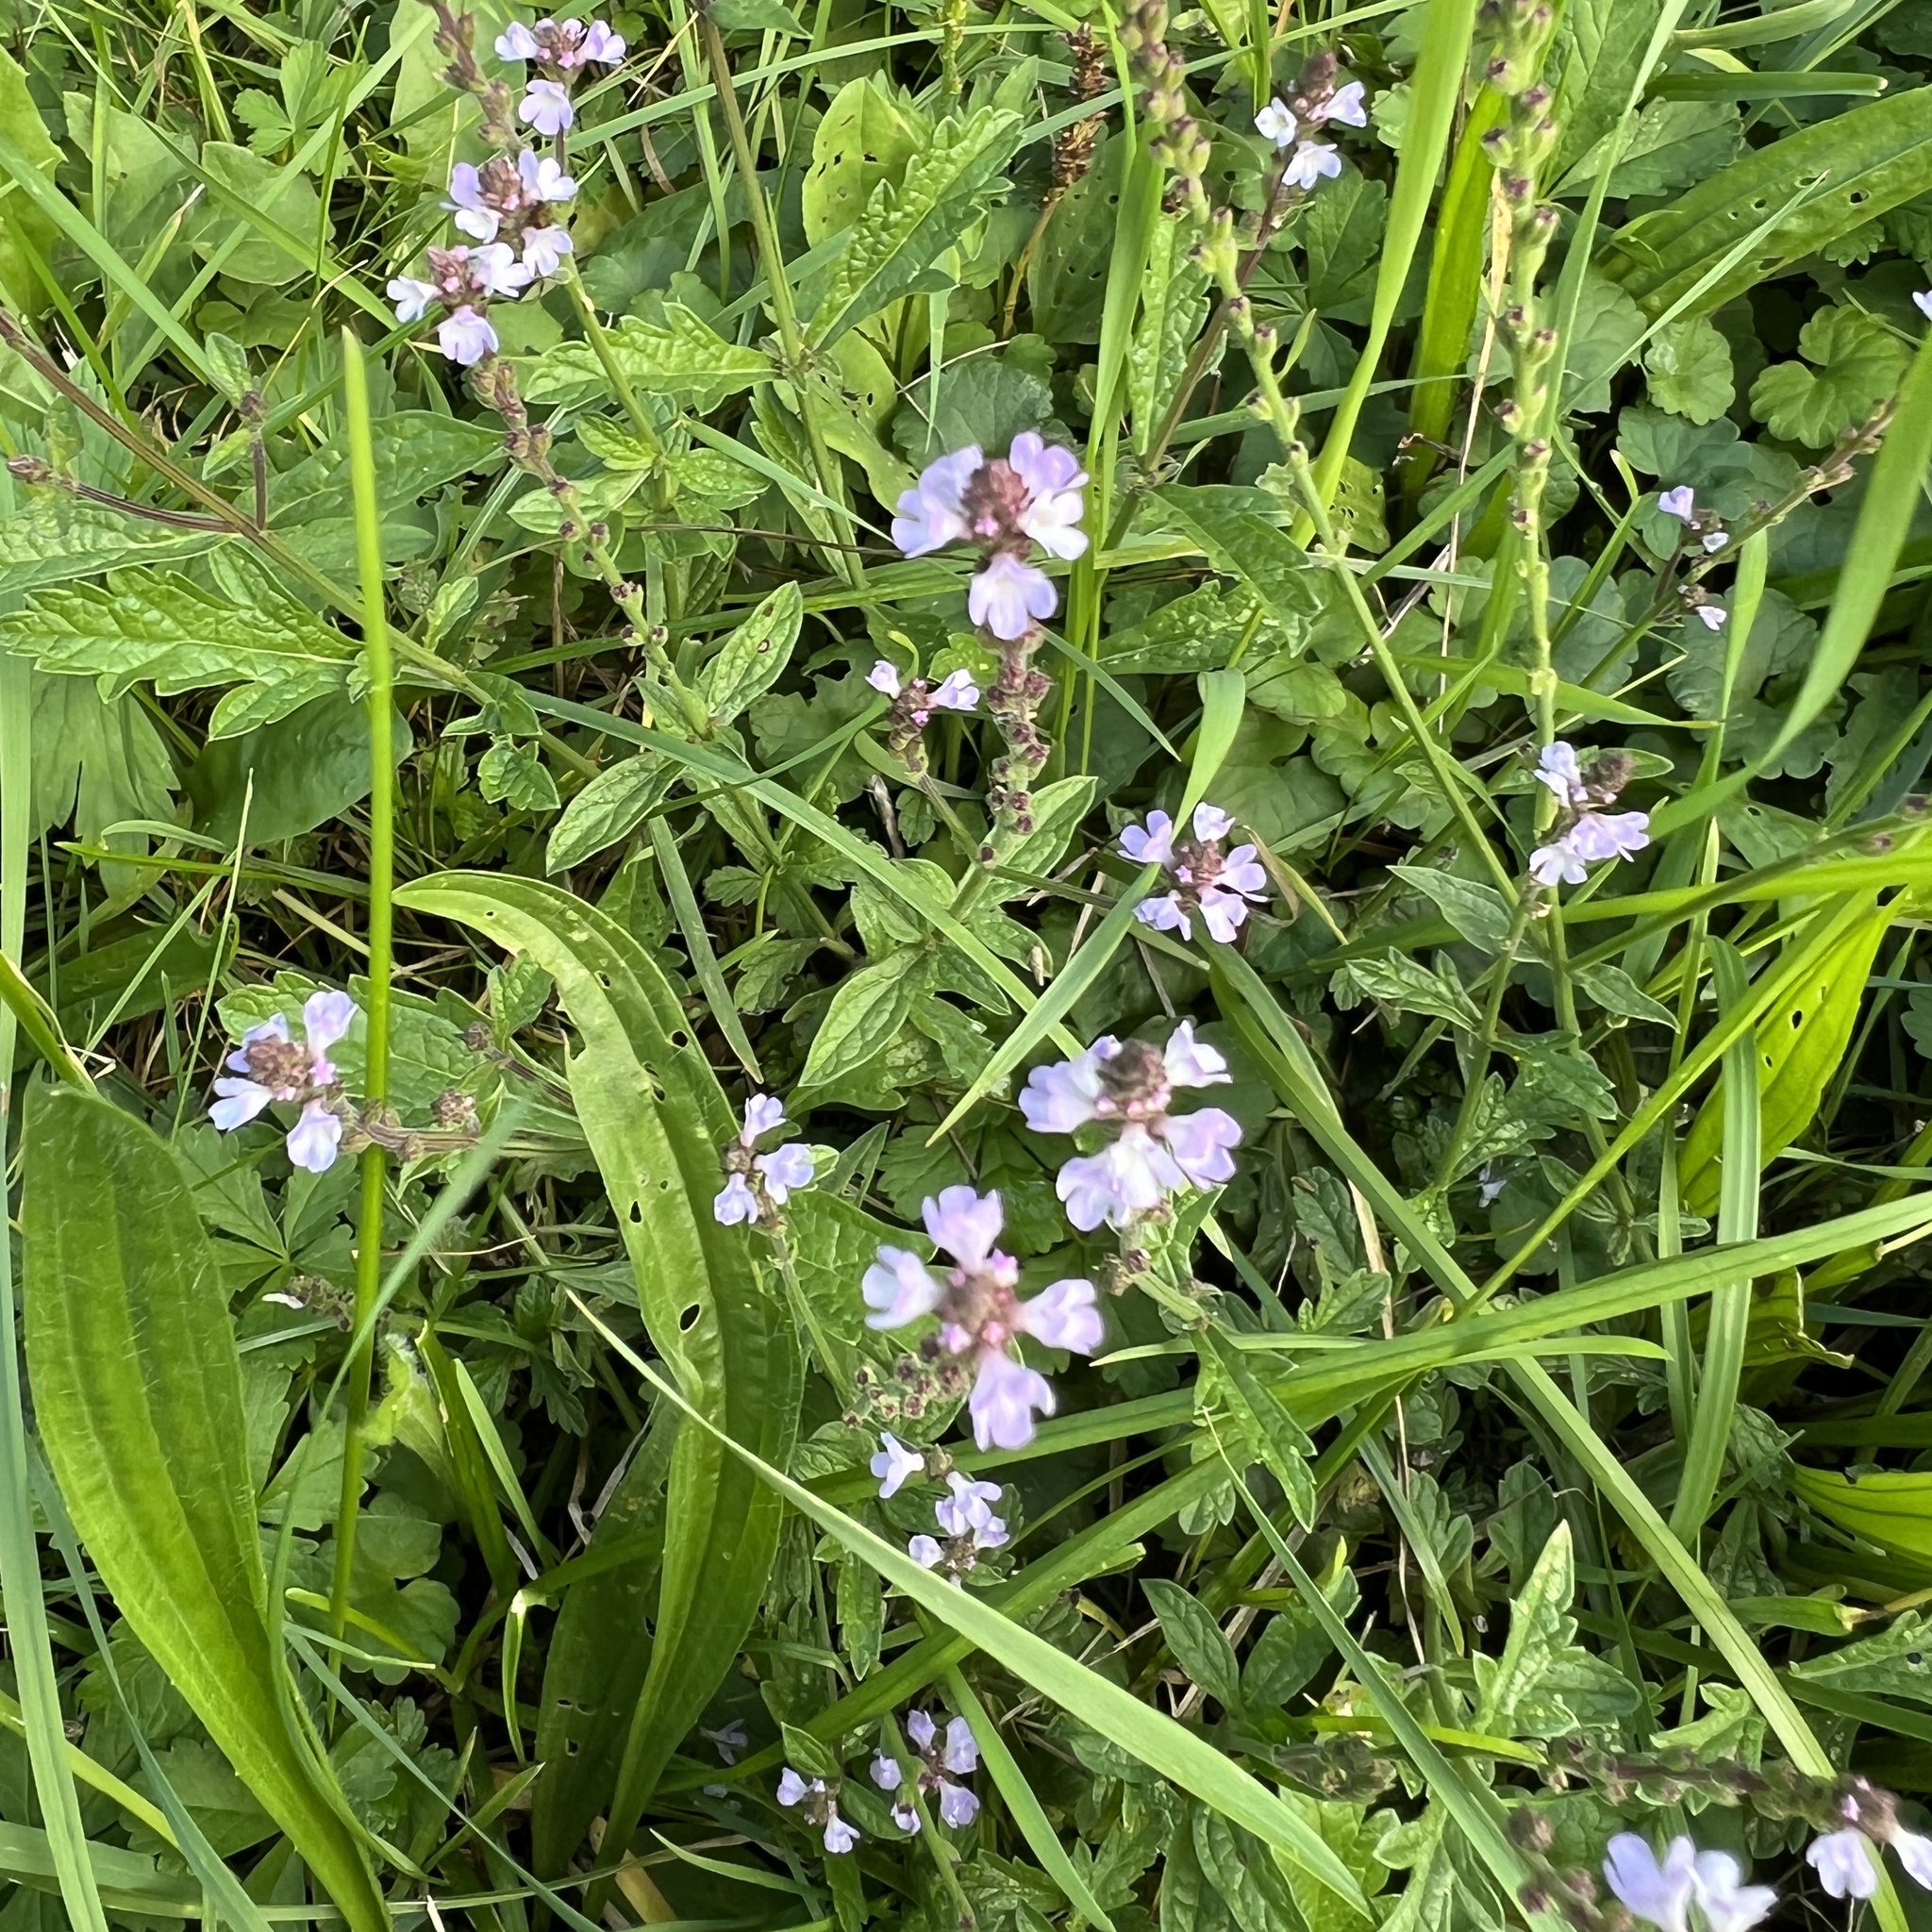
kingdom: Plantae
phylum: Tracheophyta
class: Magnoliopsida
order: Lamiales
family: Verbenaceae
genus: Verbena
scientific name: Verbena officinalis
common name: Vervain
